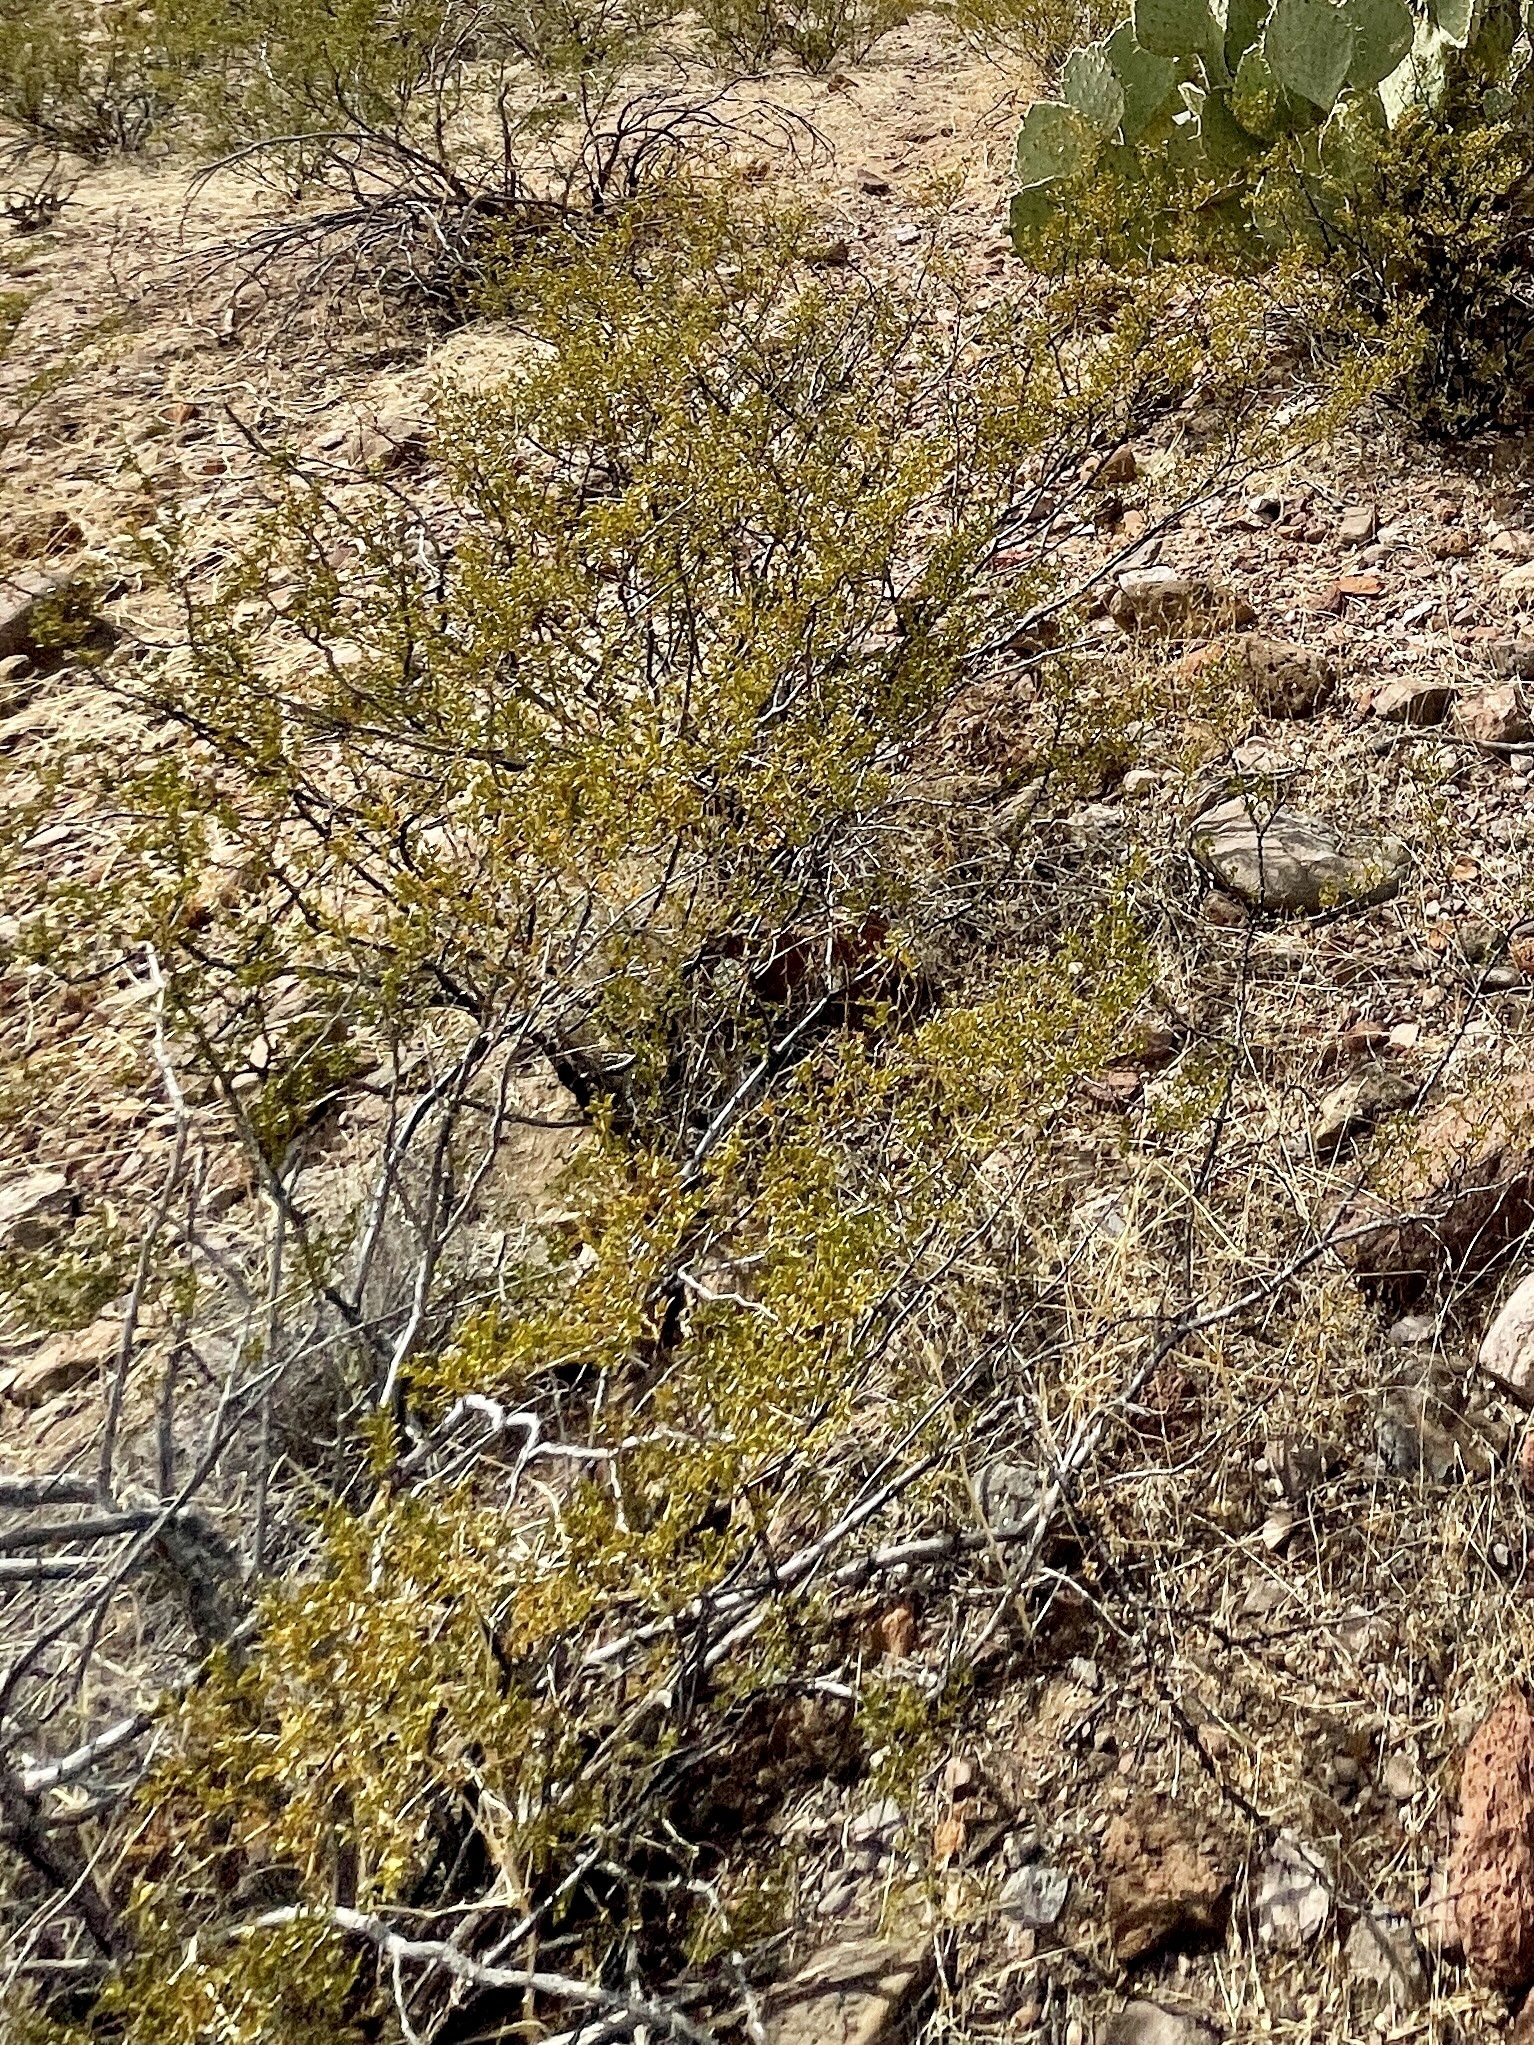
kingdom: Plantae
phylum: Tracheophyta
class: Magnoliopsida
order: Zygophyllales
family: Zygophyllaceae
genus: Larrea
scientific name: Larrea tridentata
